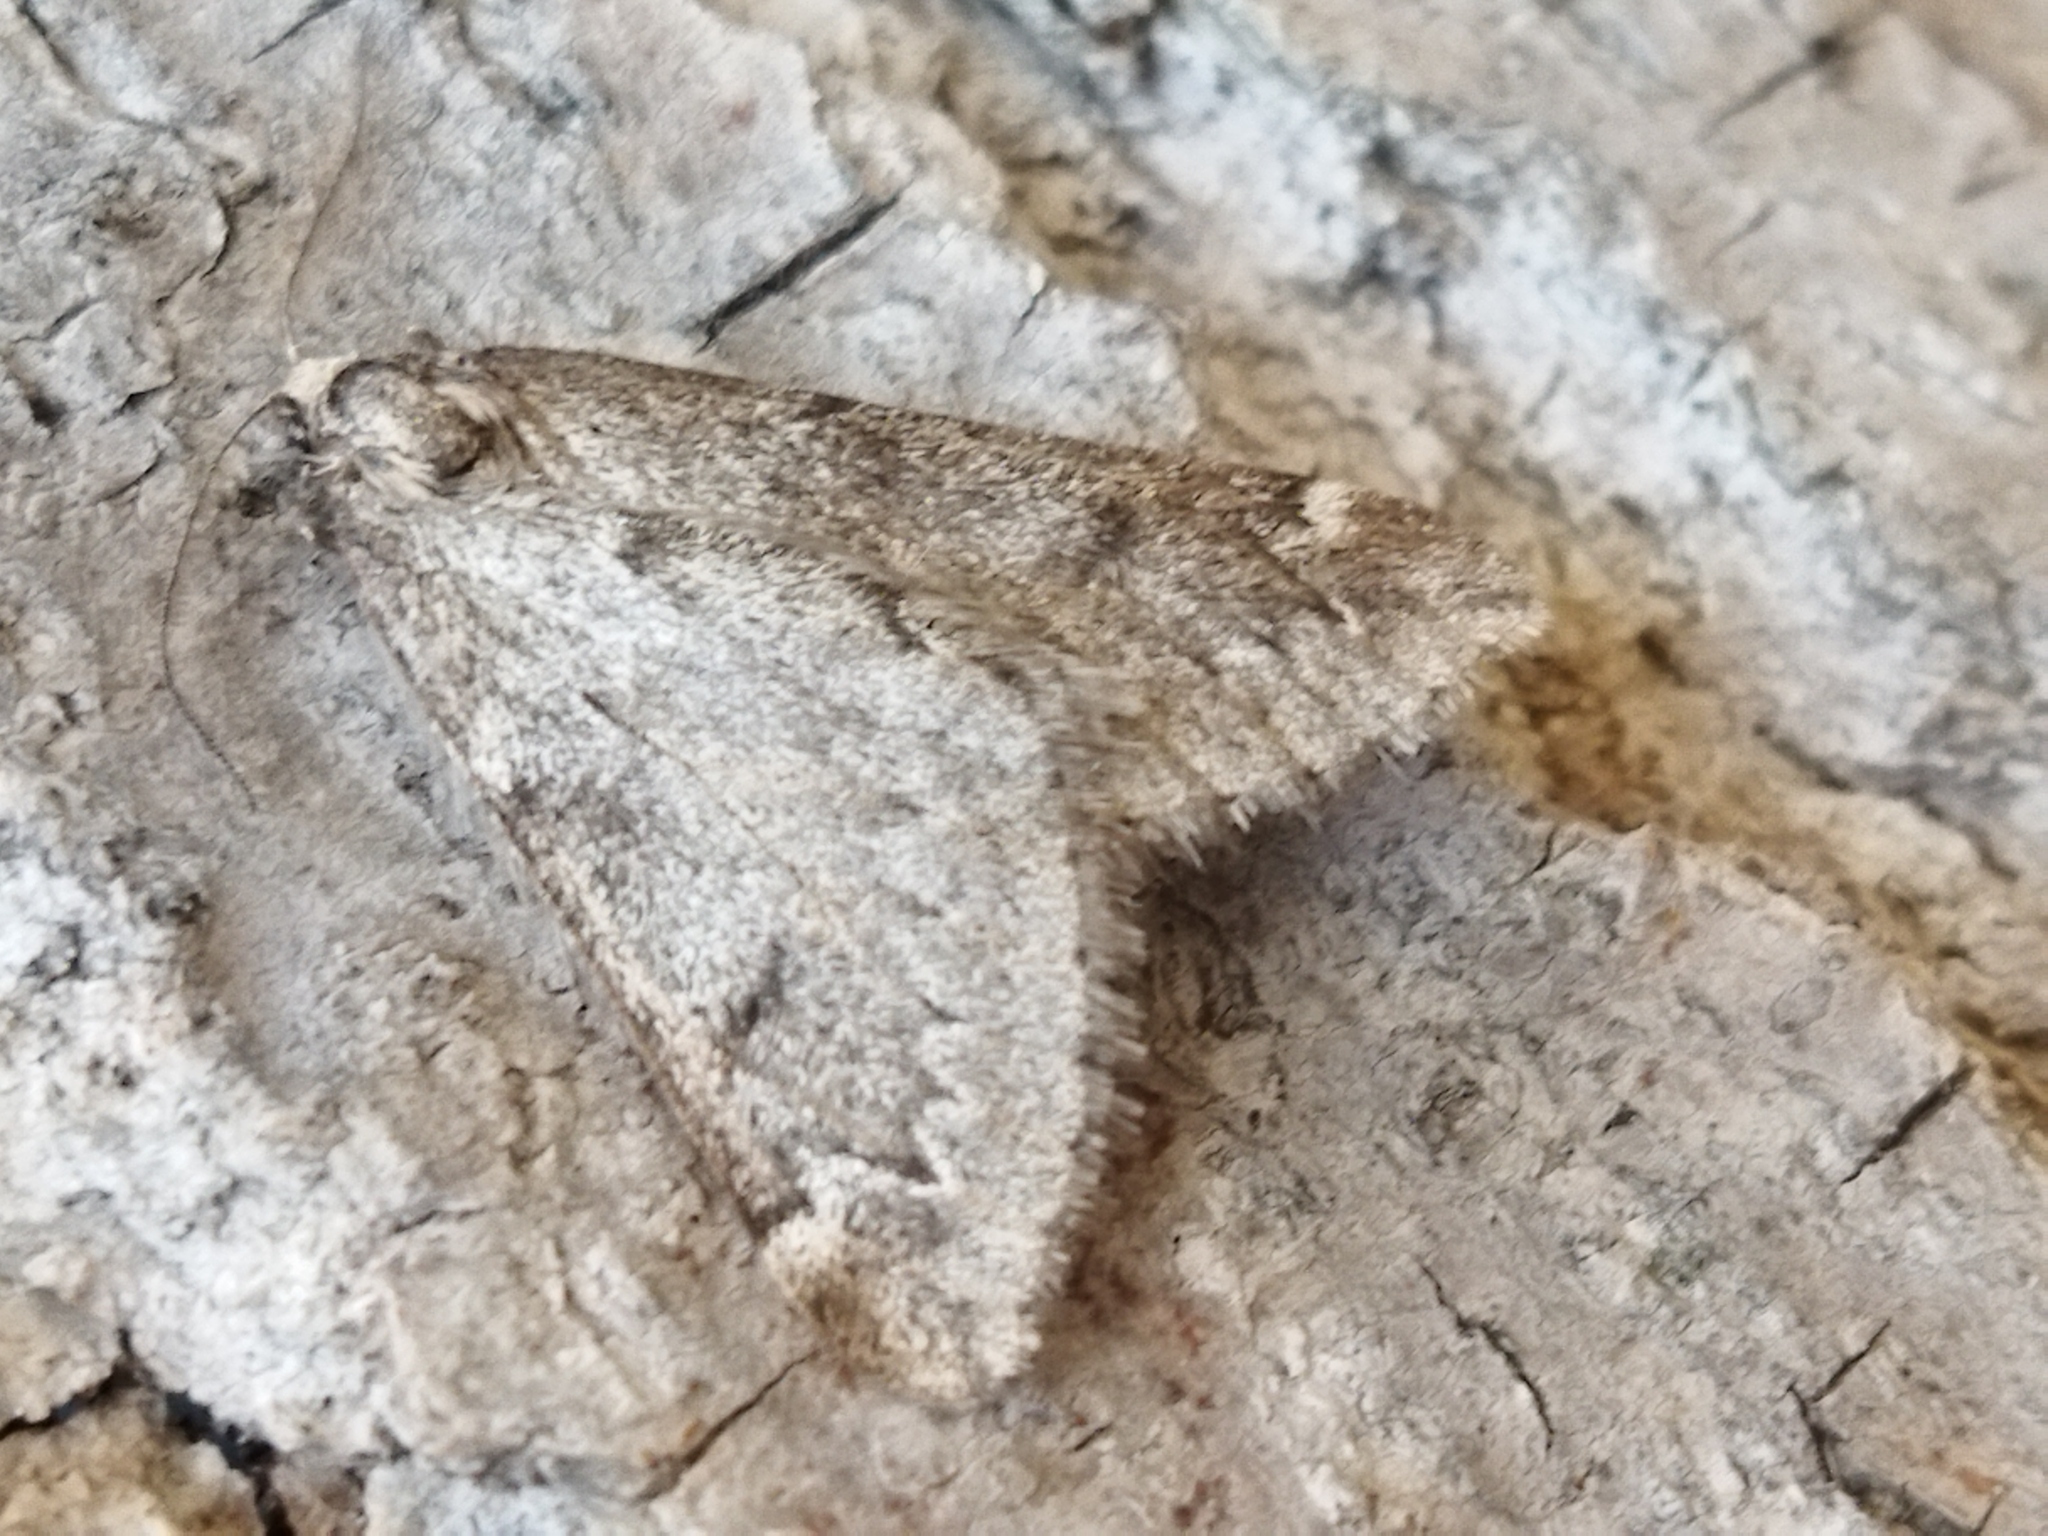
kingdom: Animalia
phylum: Arthropoda
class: Insecta
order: Lepidoptera
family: Geometridae
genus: Alsophila
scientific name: Alsophila aescularia
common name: March moth
